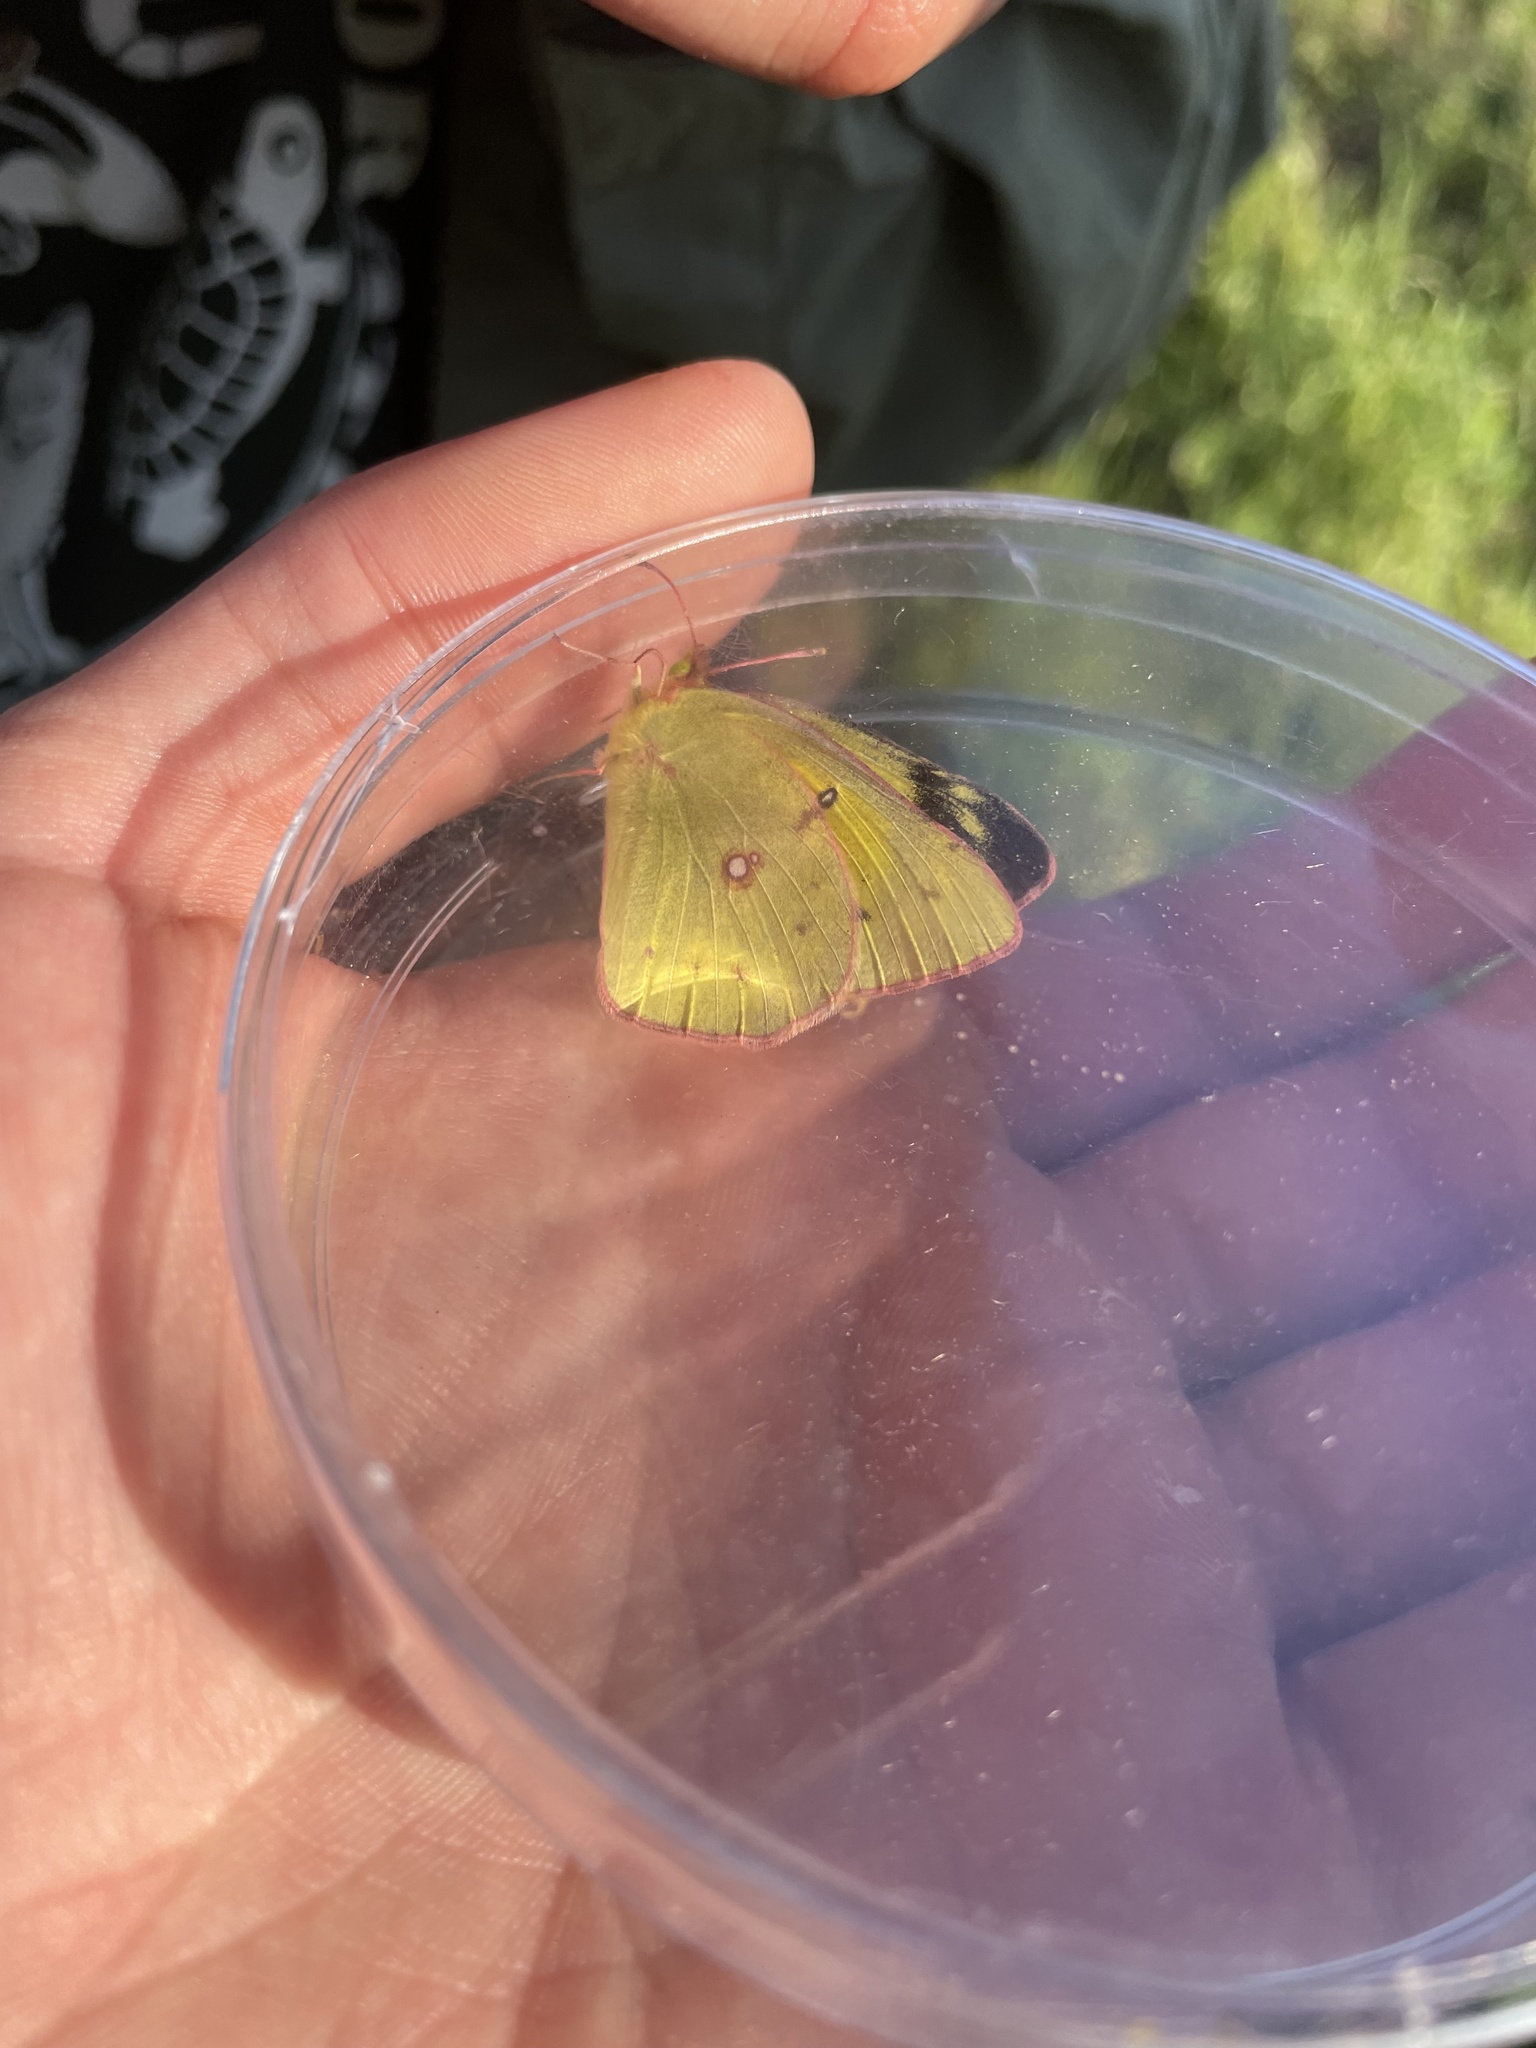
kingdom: Animalia
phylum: Arthropoda
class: Insecta
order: Lepidoptera
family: Pieridae
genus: Colias
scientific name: Colias eurytheme
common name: Alfalfa butterfly
